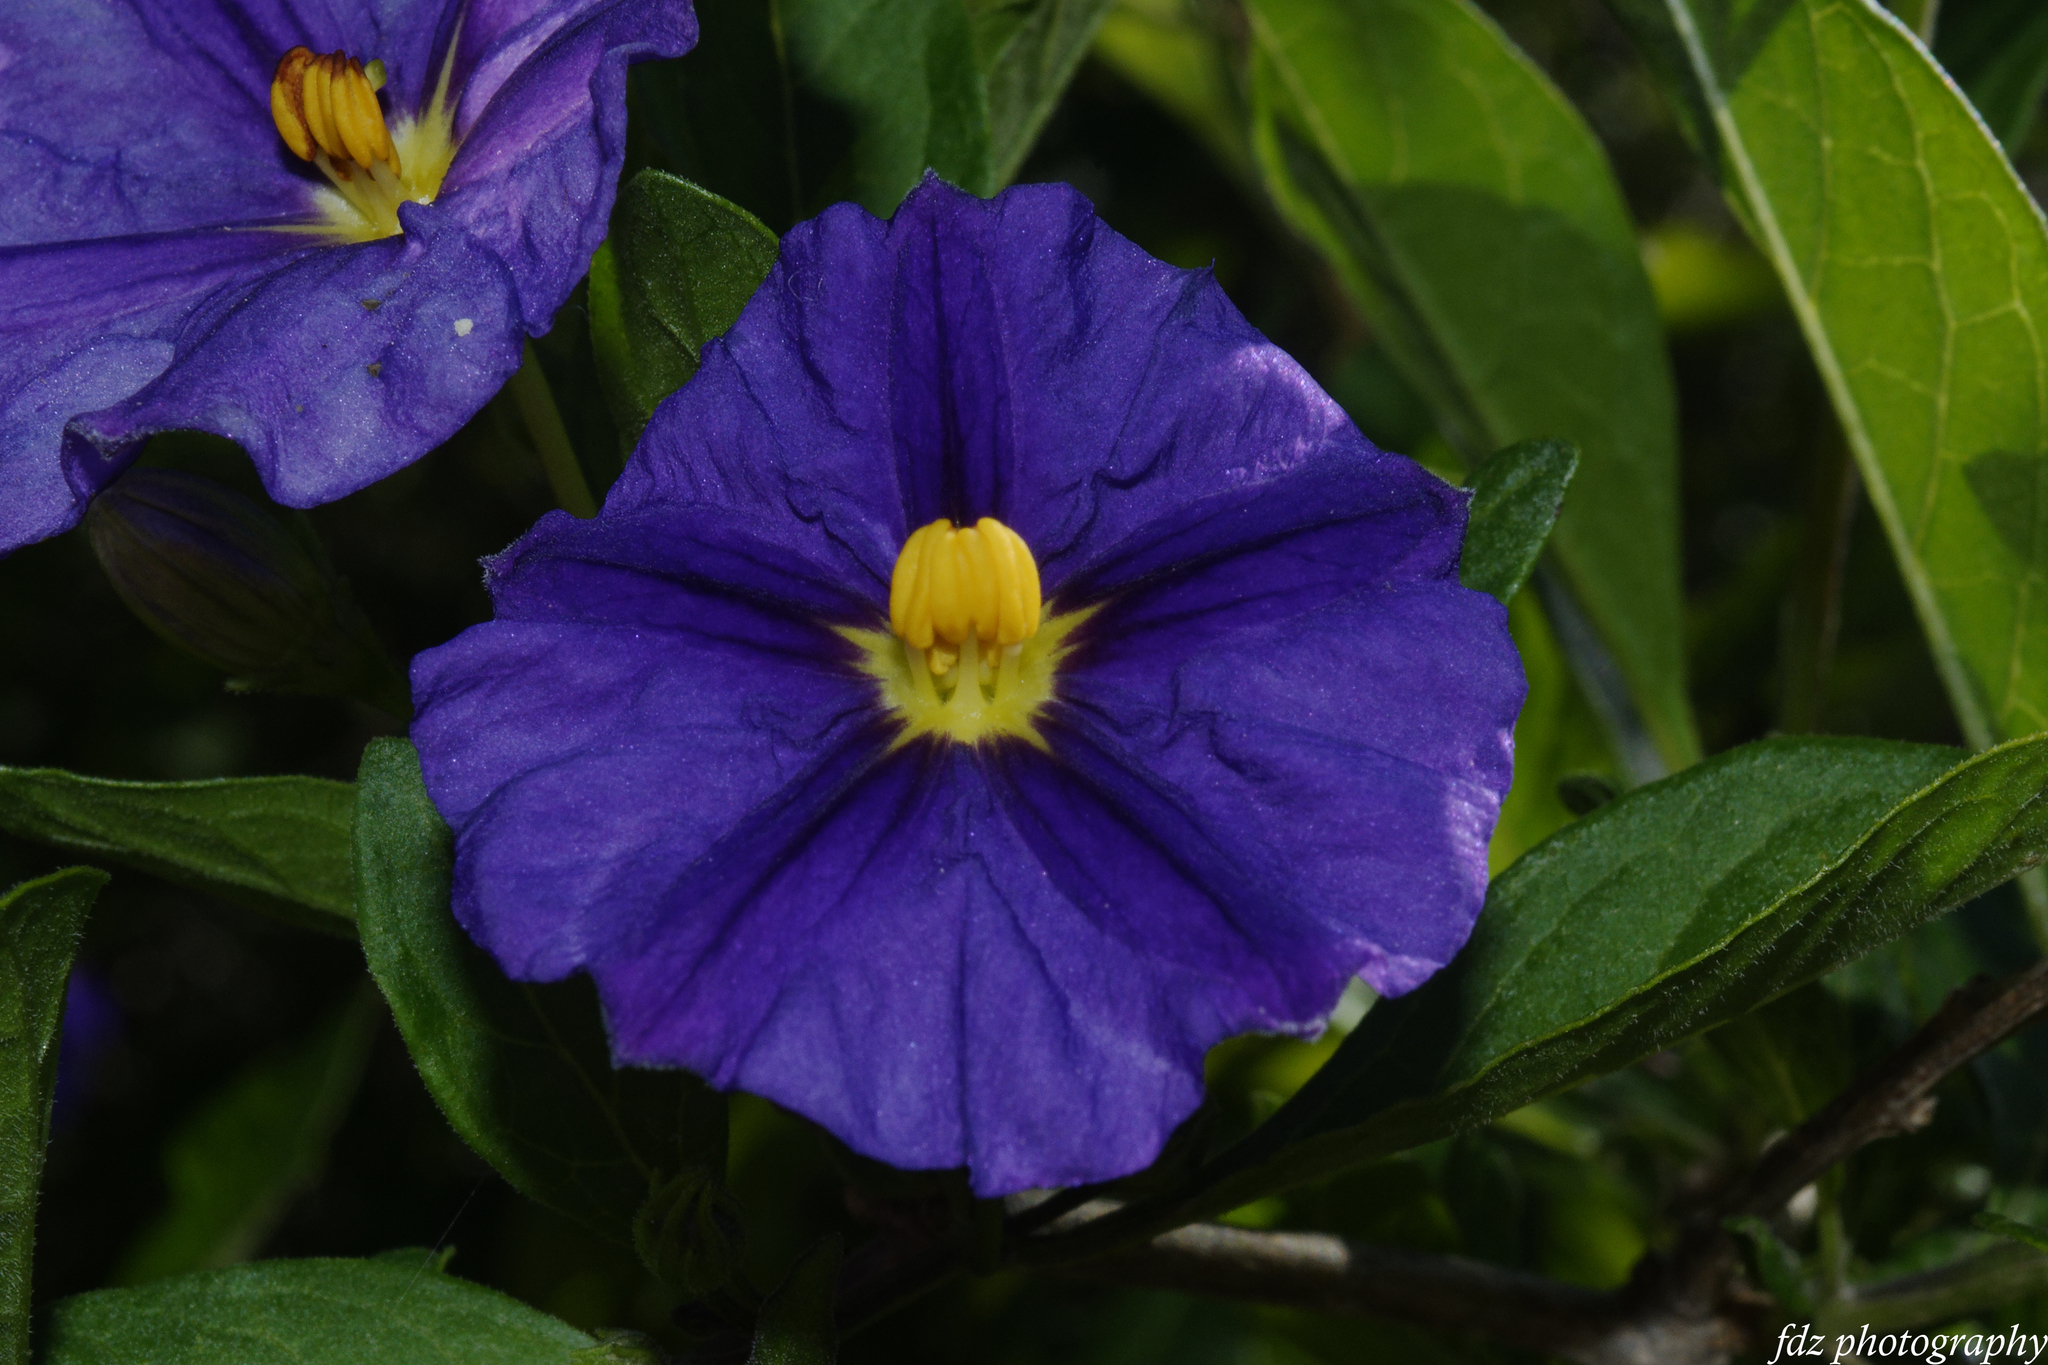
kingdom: Plantae
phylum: Tracheophyta
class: Magnoliopsida
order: Solanales
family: Solanaceae
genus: Lycianthes
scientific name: Lycianthes rantonnetii
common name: Blue potatobush
